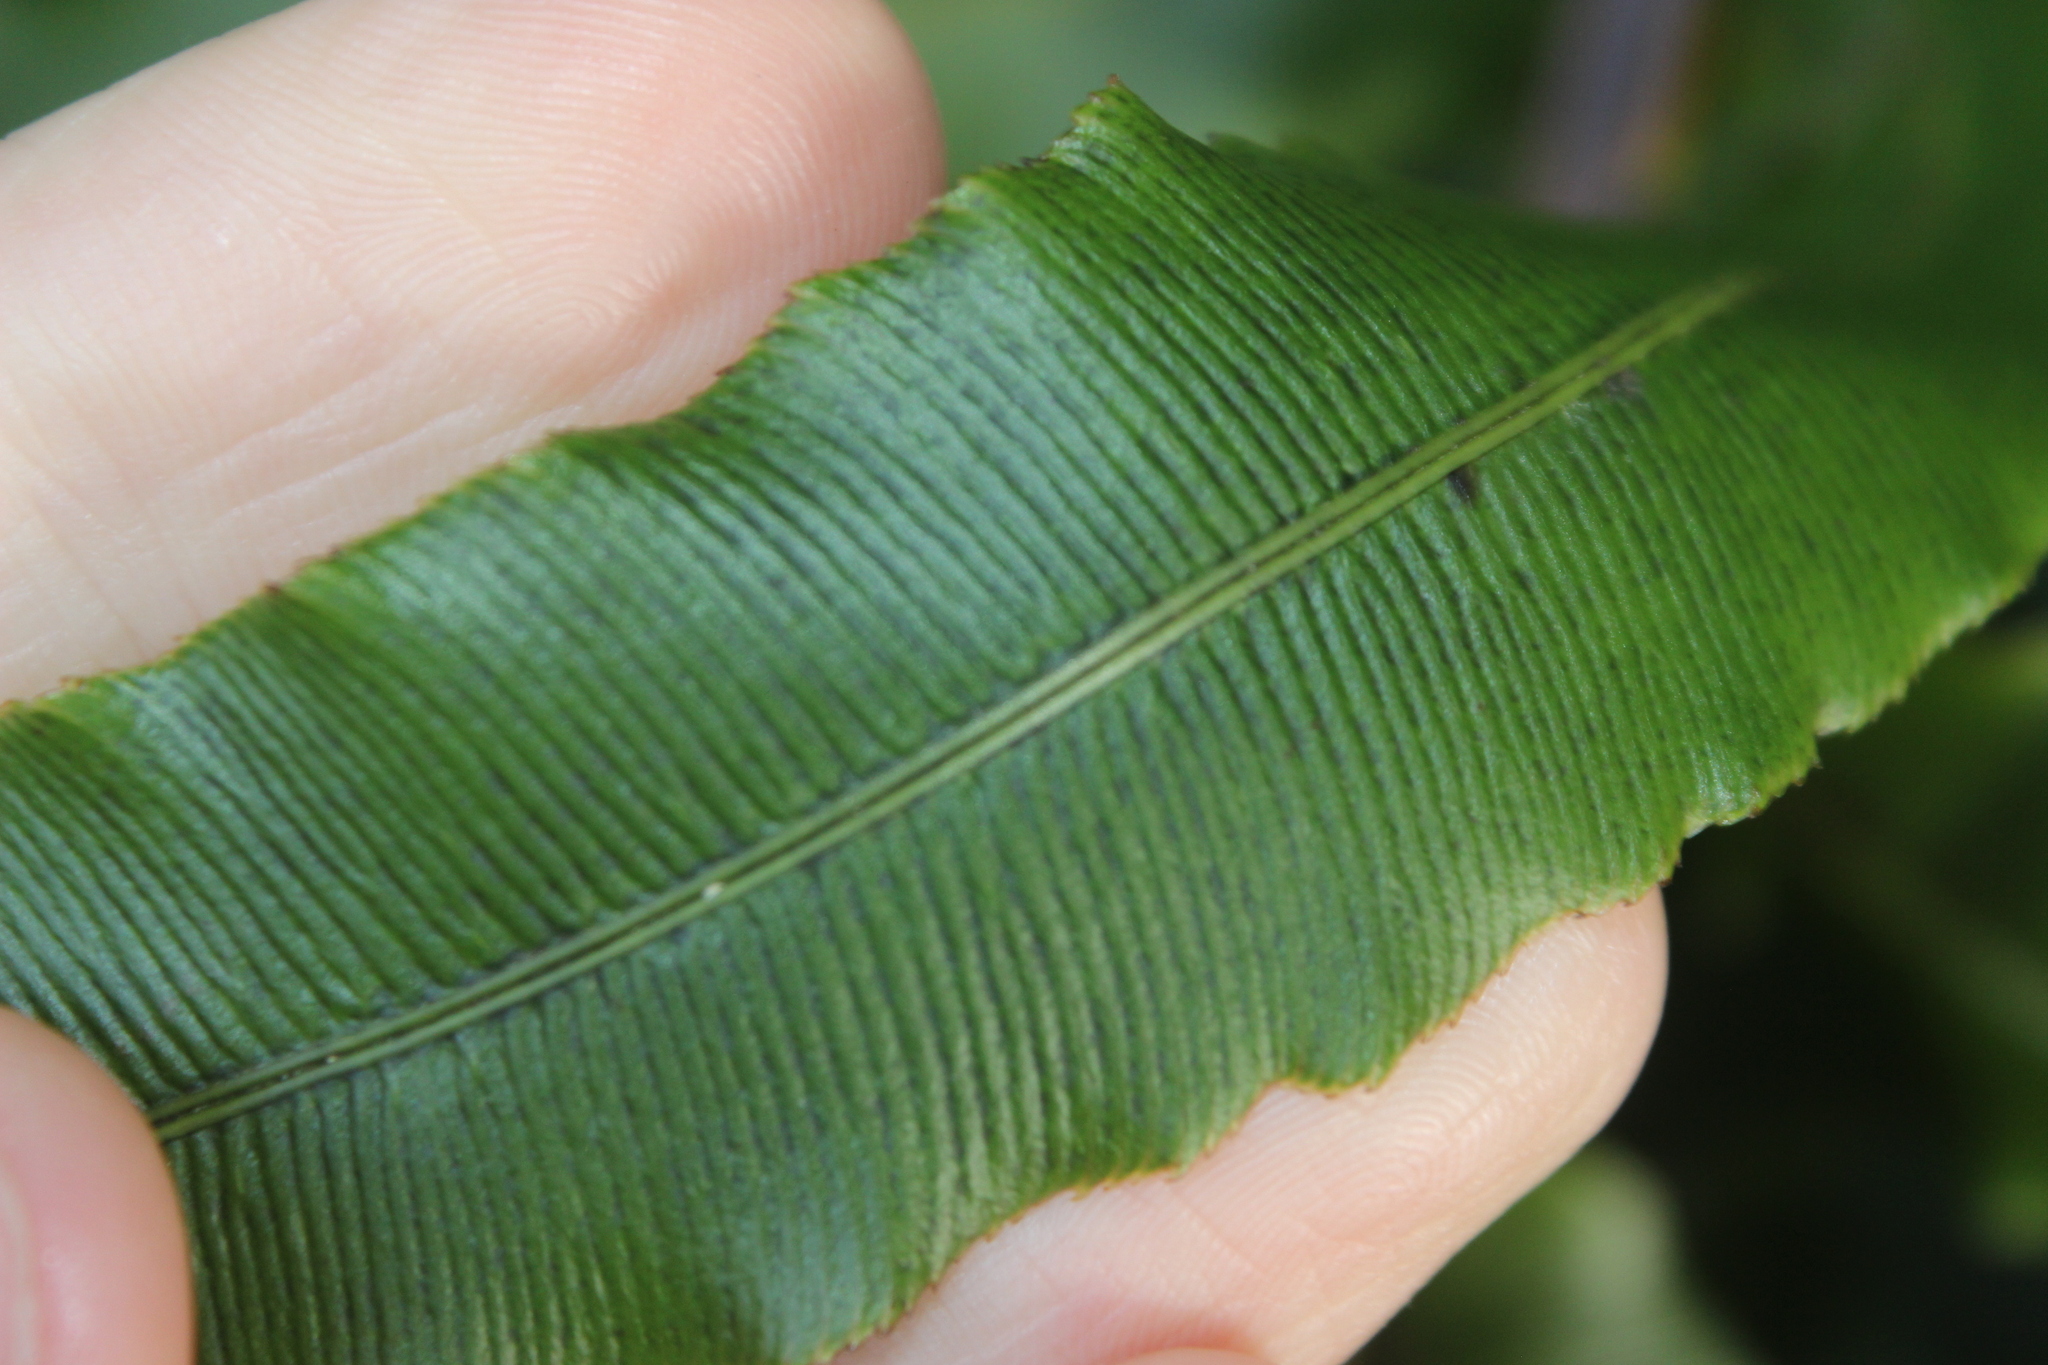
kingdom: Plantae
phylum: Tracheophyta
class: Polypodiopsida
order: Polypodiales
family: Blechnaceae
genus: Parablechnum
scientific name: Parablechnum novae-zelandiae
